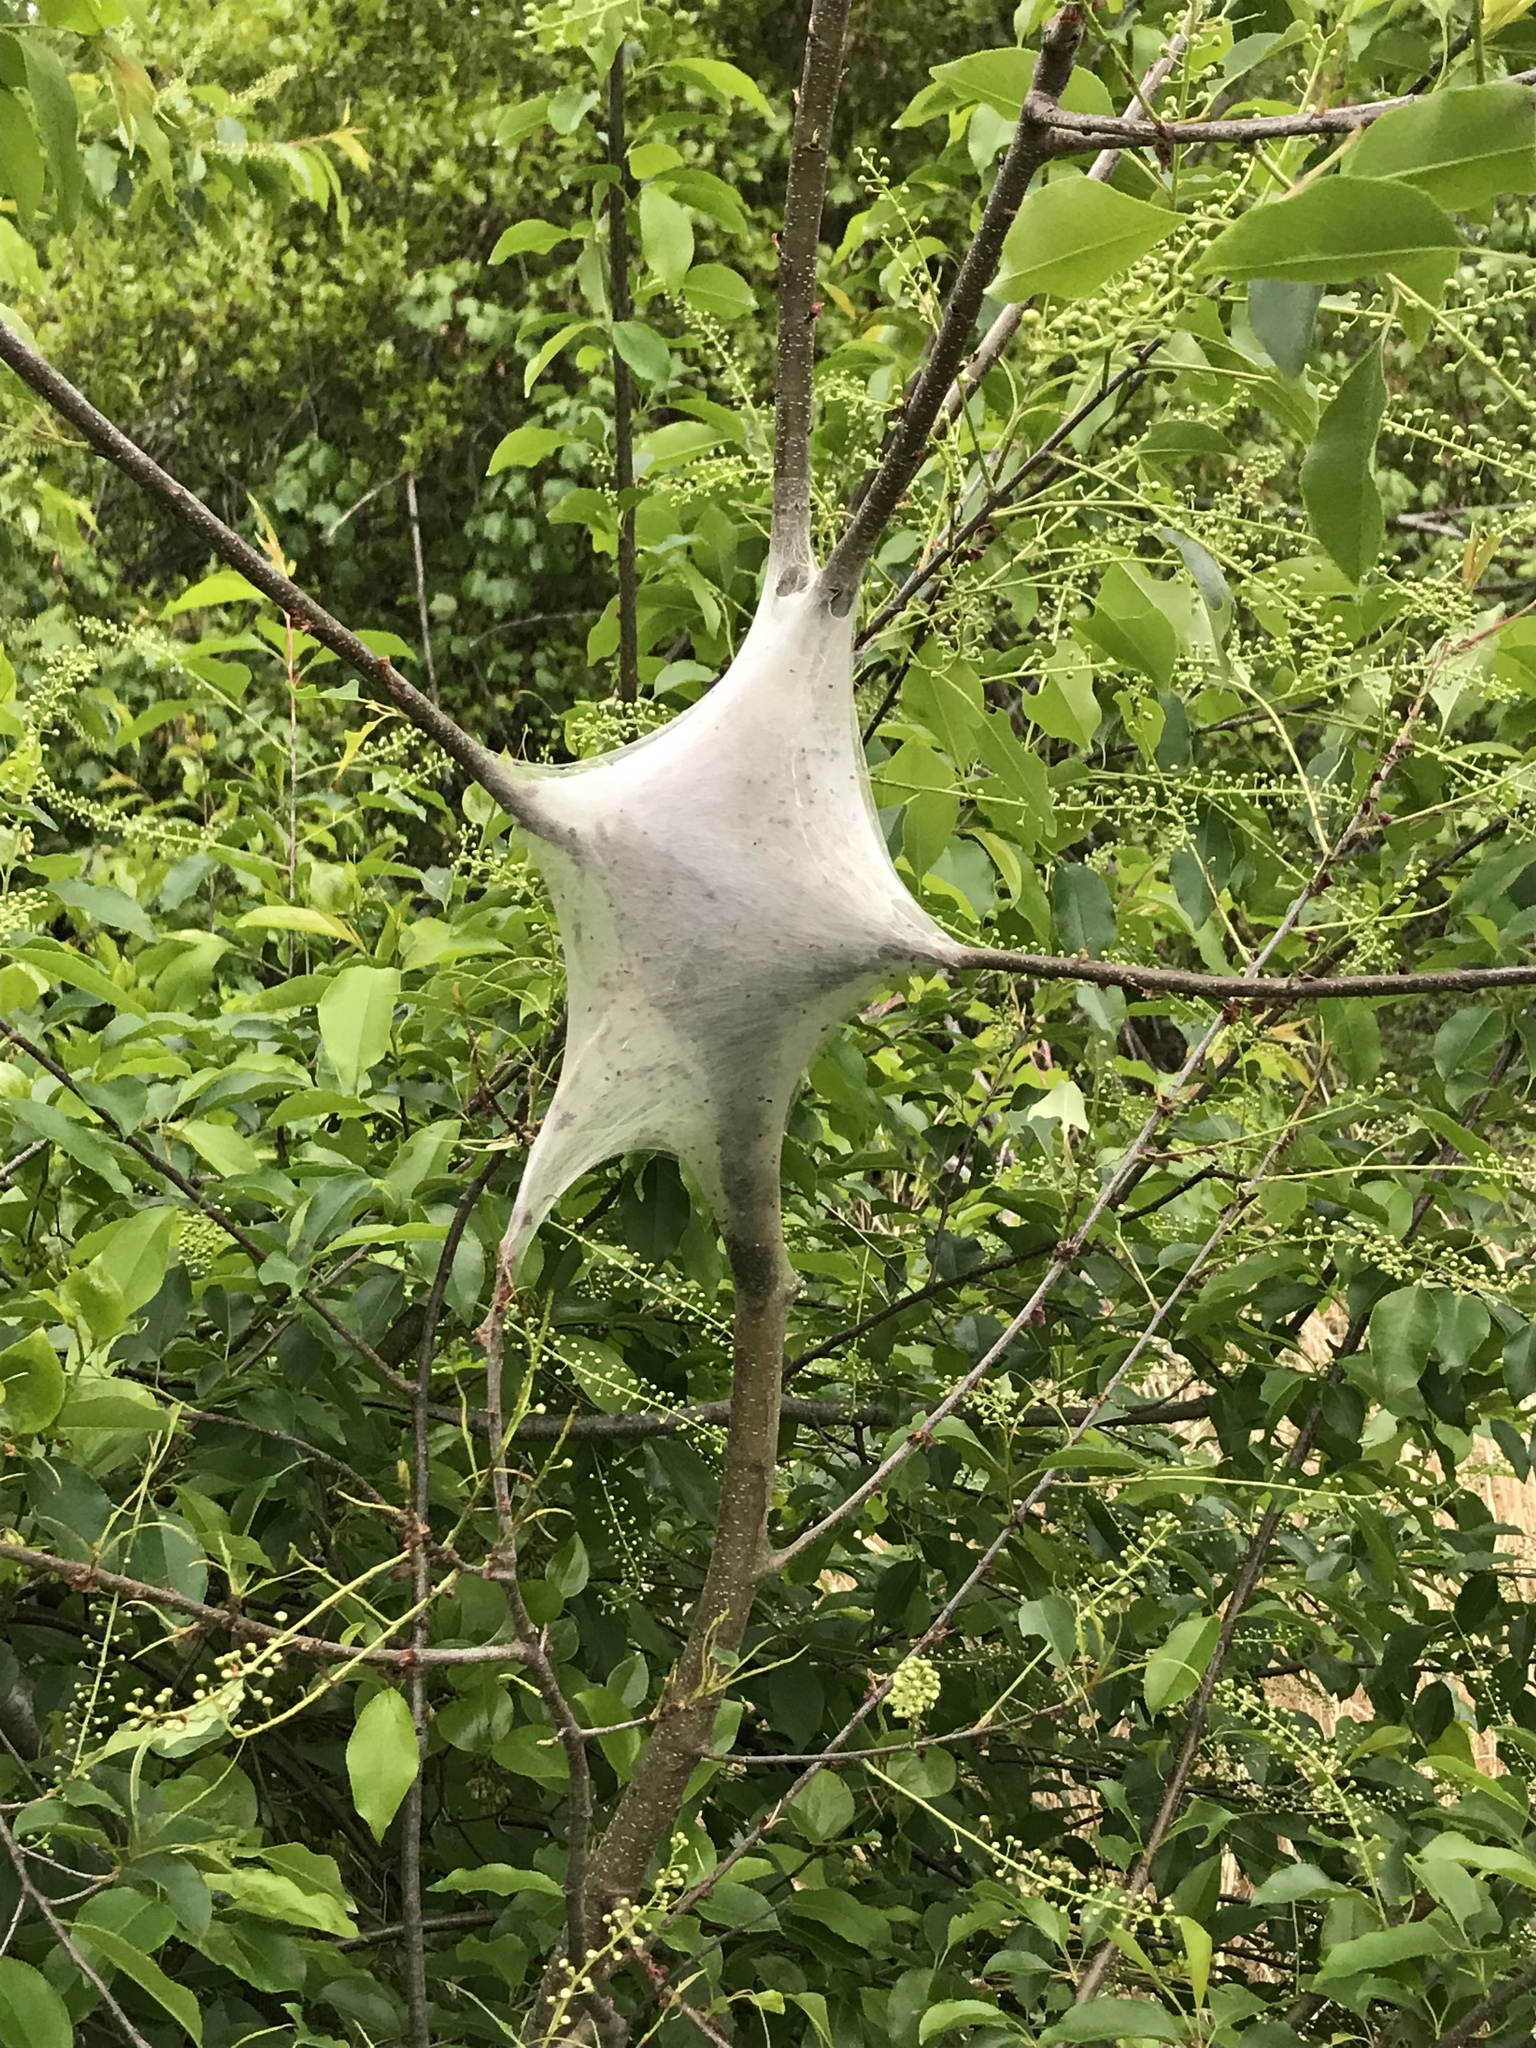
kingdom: Animalia
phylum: Arthropoda
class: Insecta
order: Lepidoptera
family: Lasiocampidae
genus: Malacosoma
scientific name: Malacosoma americana
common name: Eastern tent caterpillar moth
